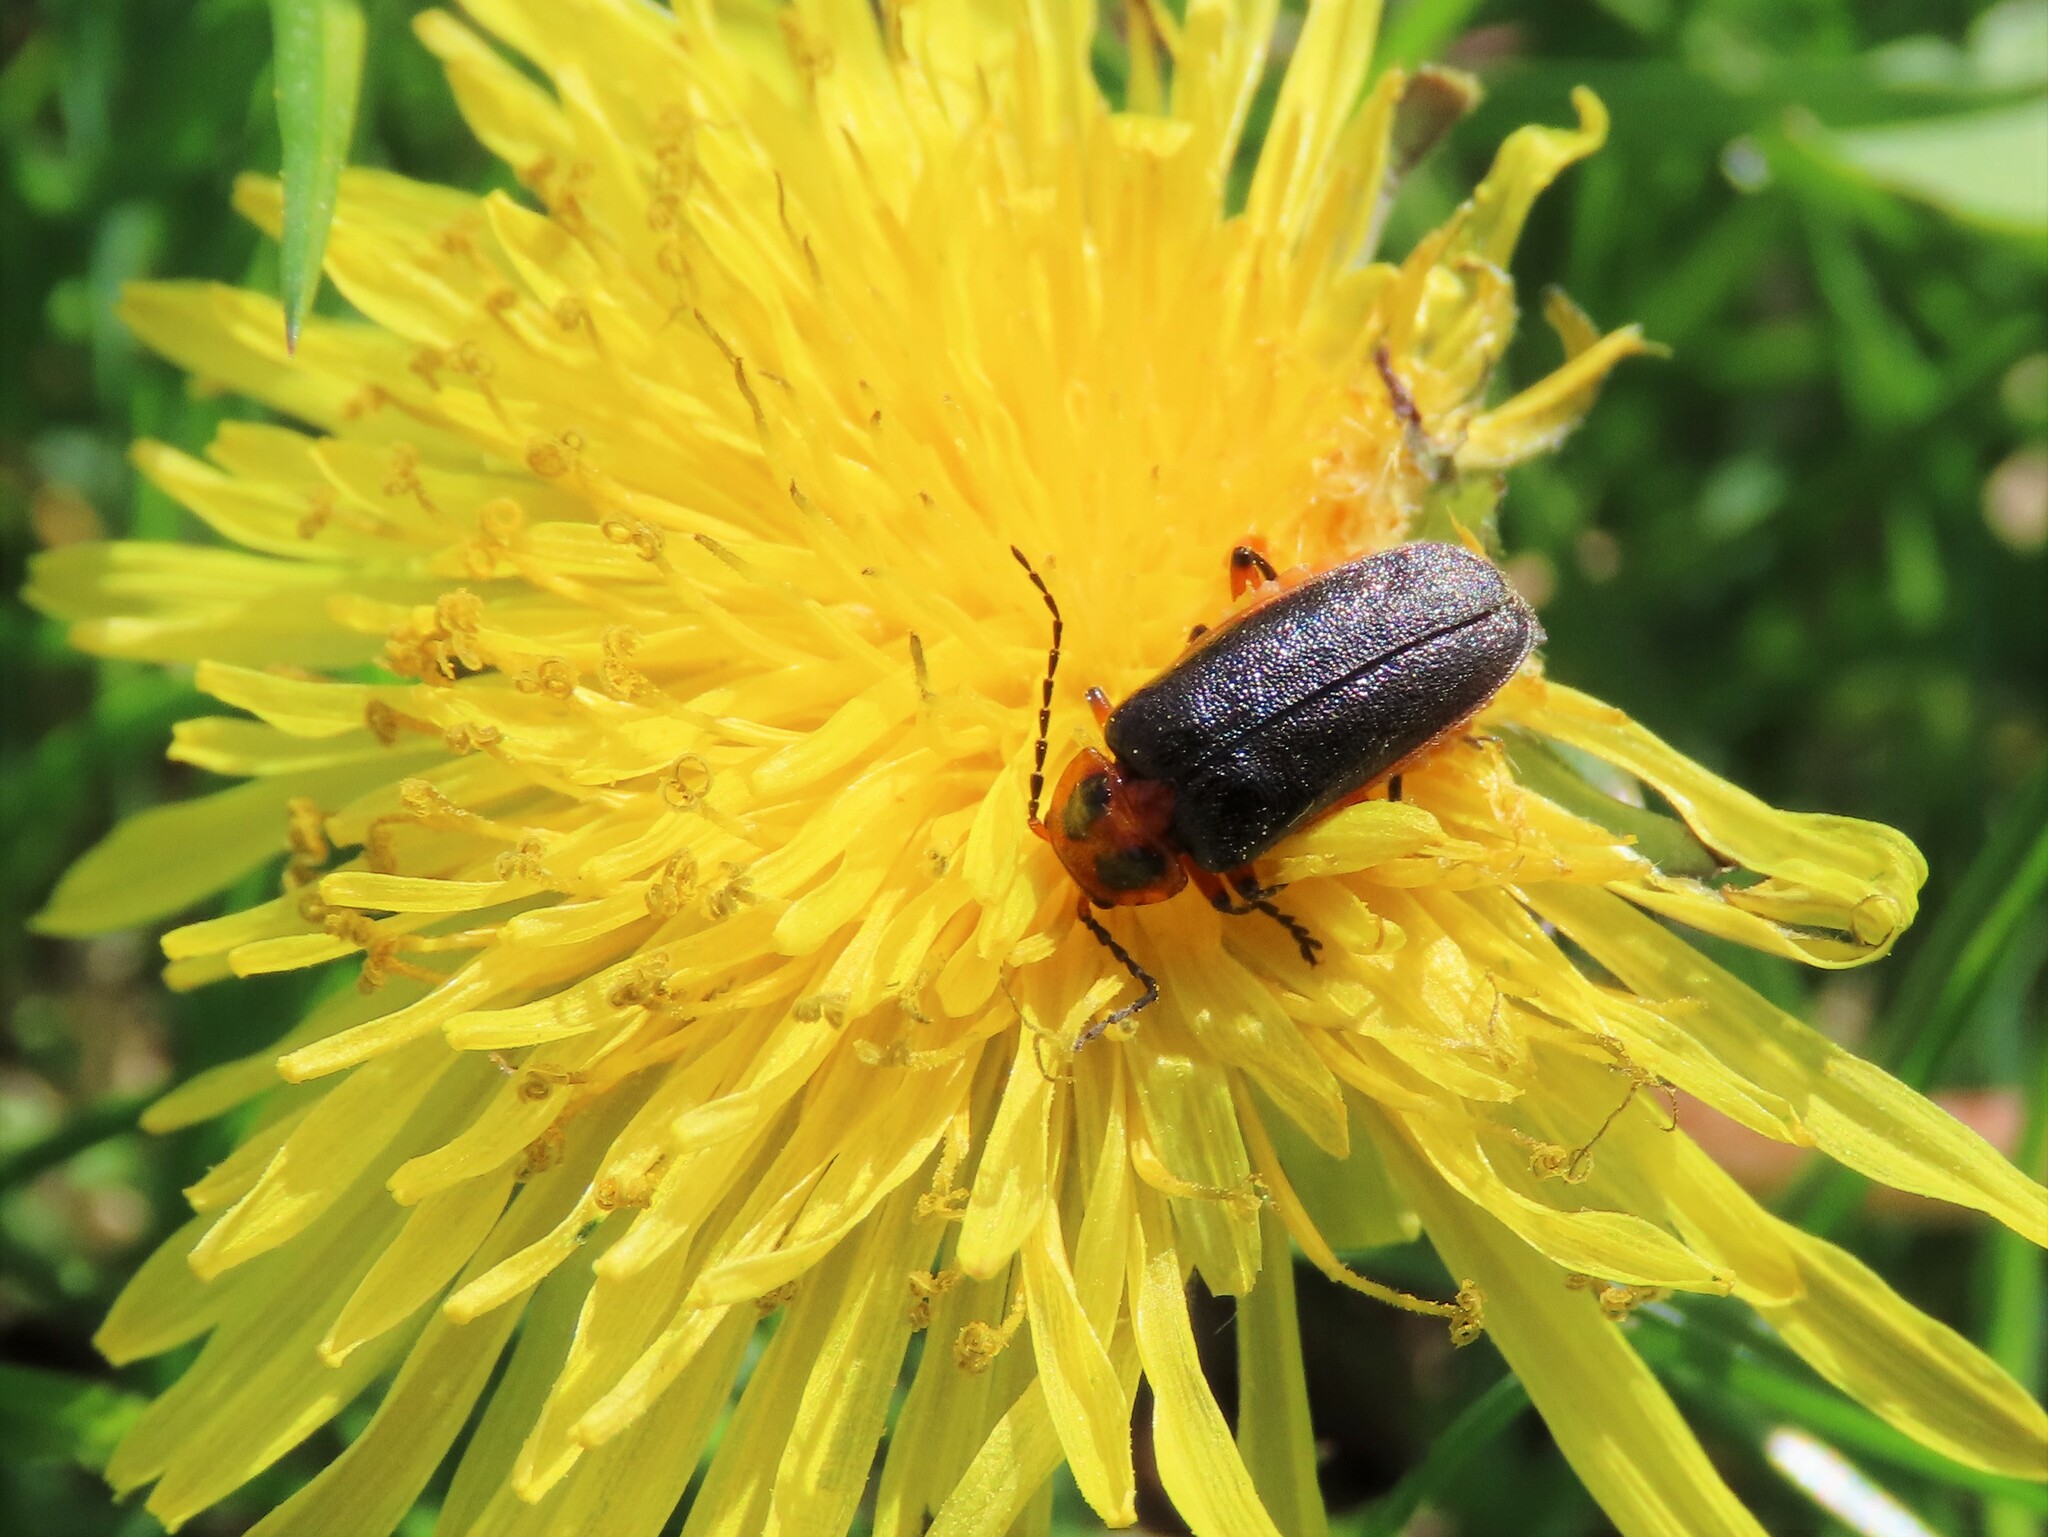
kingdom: Animalia
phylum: Arthropoda
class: Insecta
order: Coleoptera
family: Cantharidae
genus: Atalantycha
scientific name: Atalantycha bilineata
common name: Two-lined leatherwing
